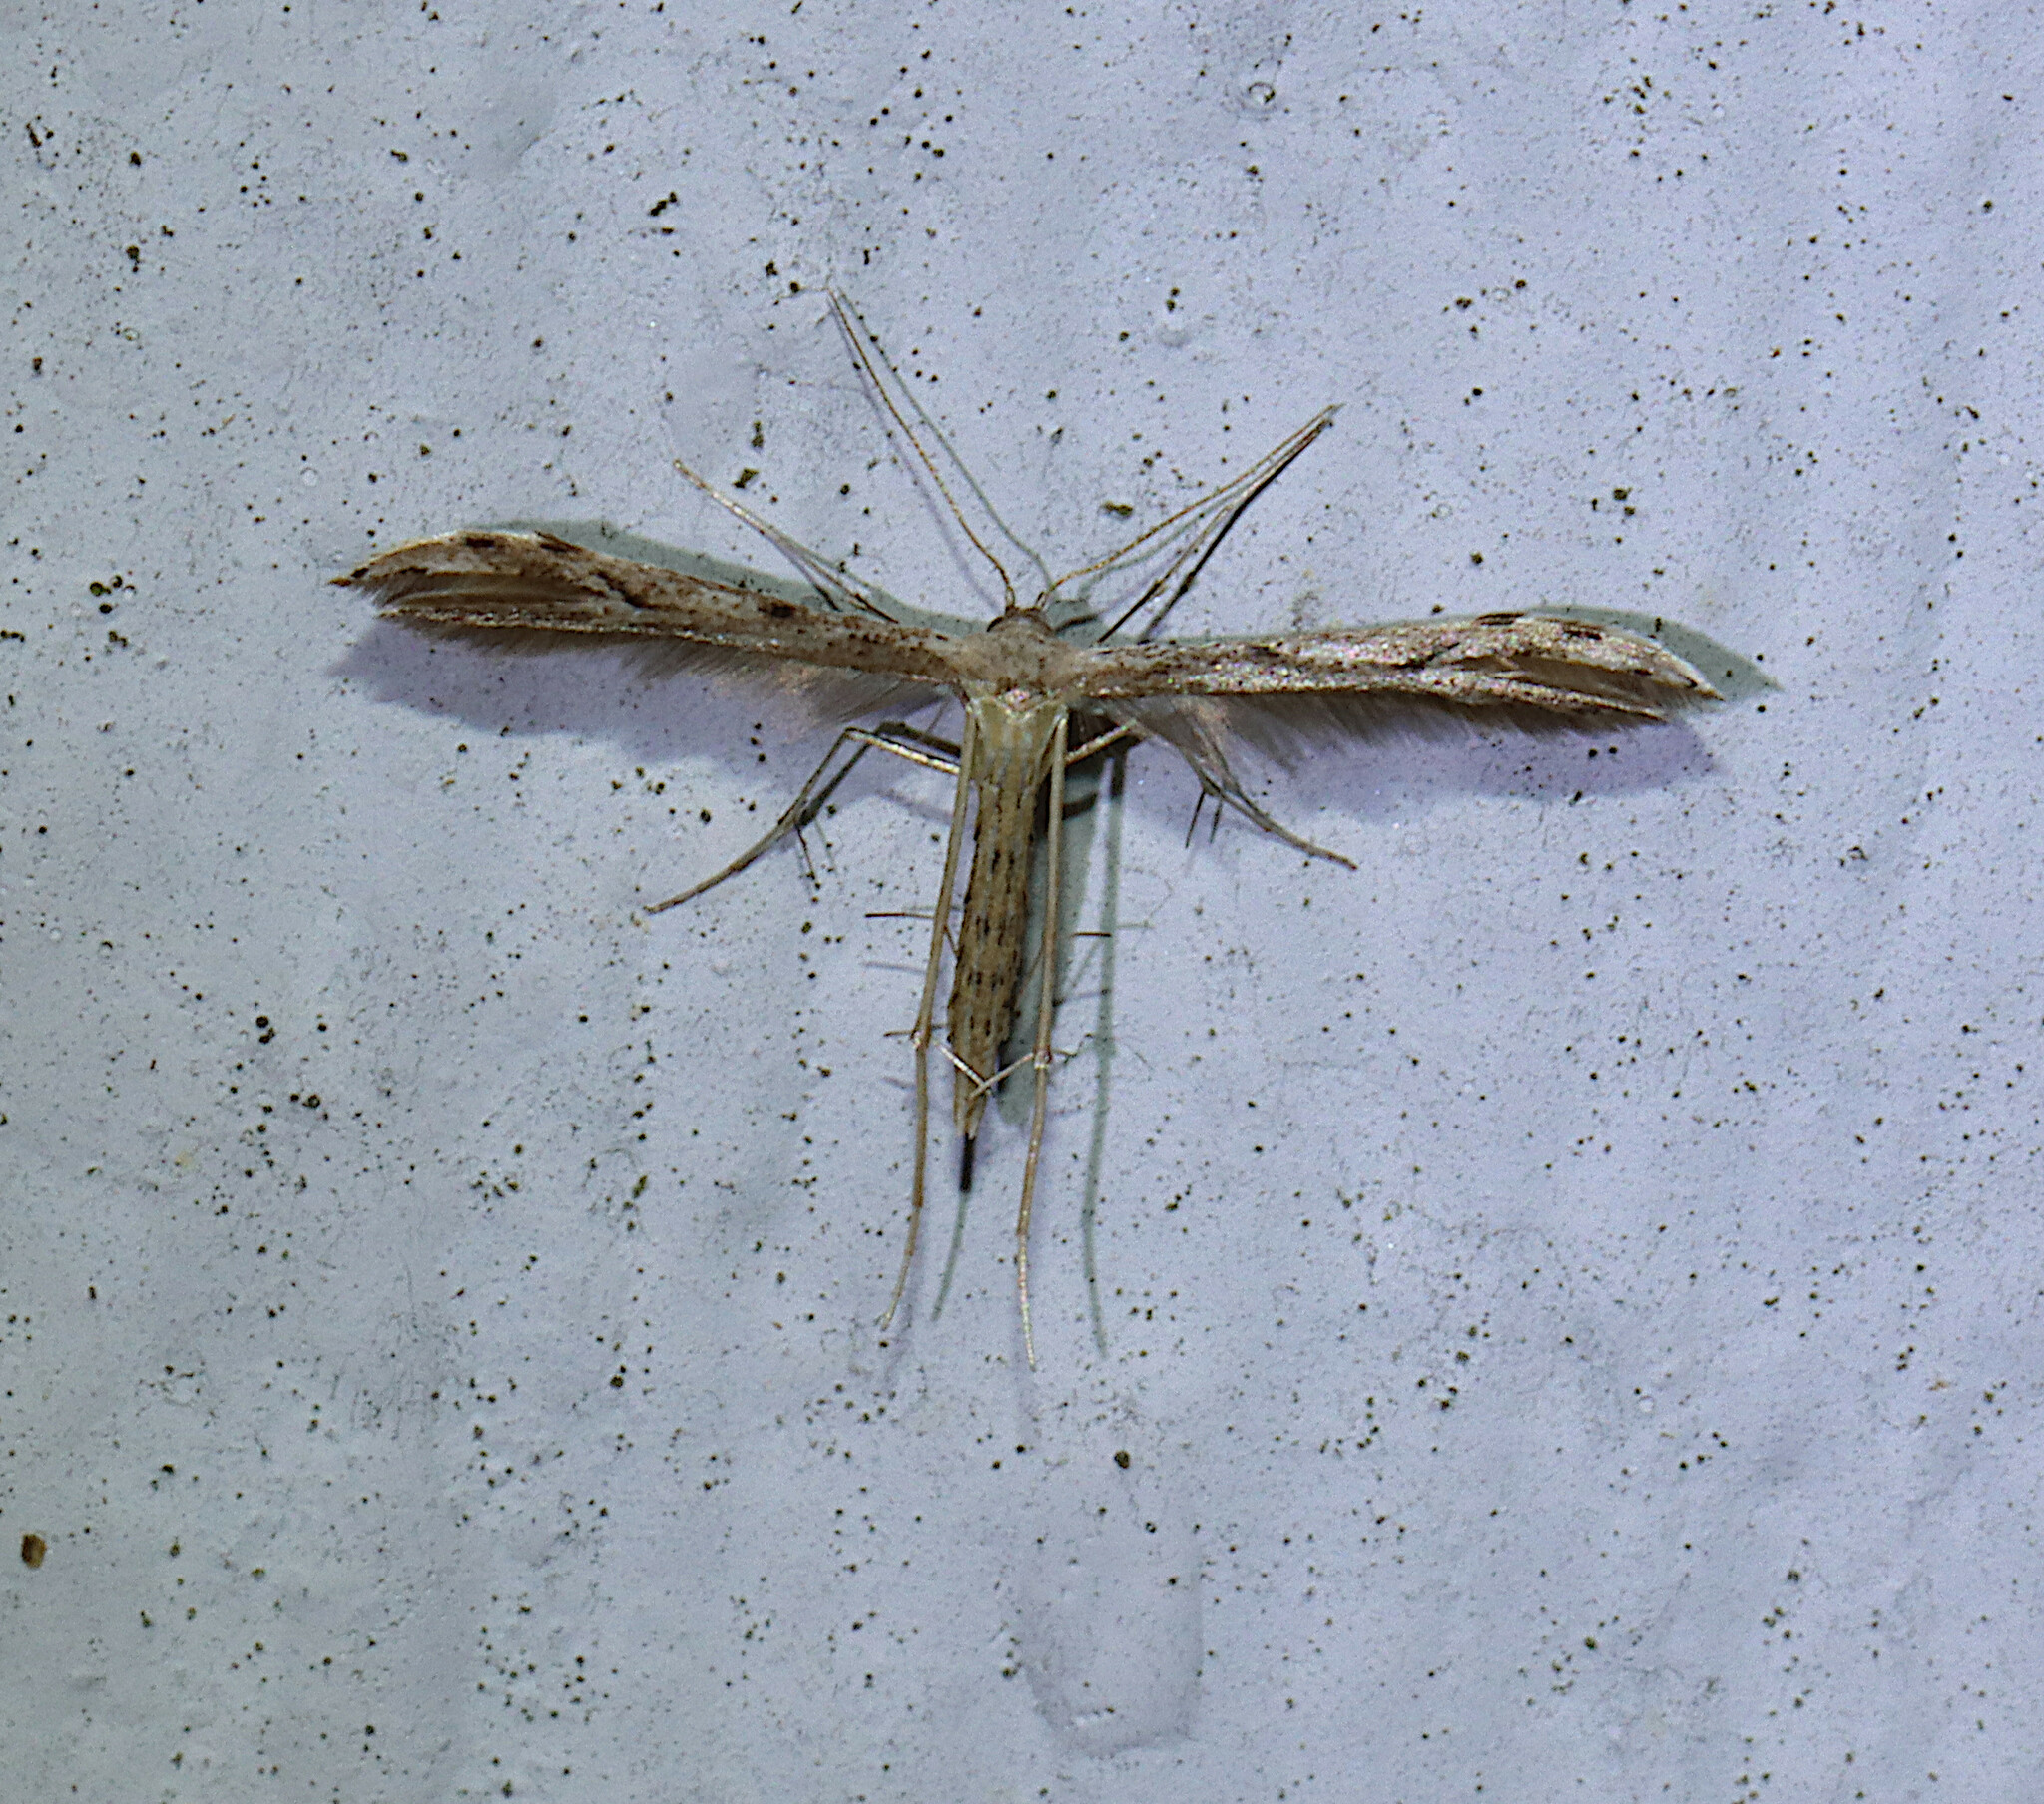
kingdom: Animalia
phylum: Arthropoda
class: Insecta
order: Lepidoptera
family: Pterophoridae
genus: Pselnophorus
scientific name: Pselnophorus belfragei
